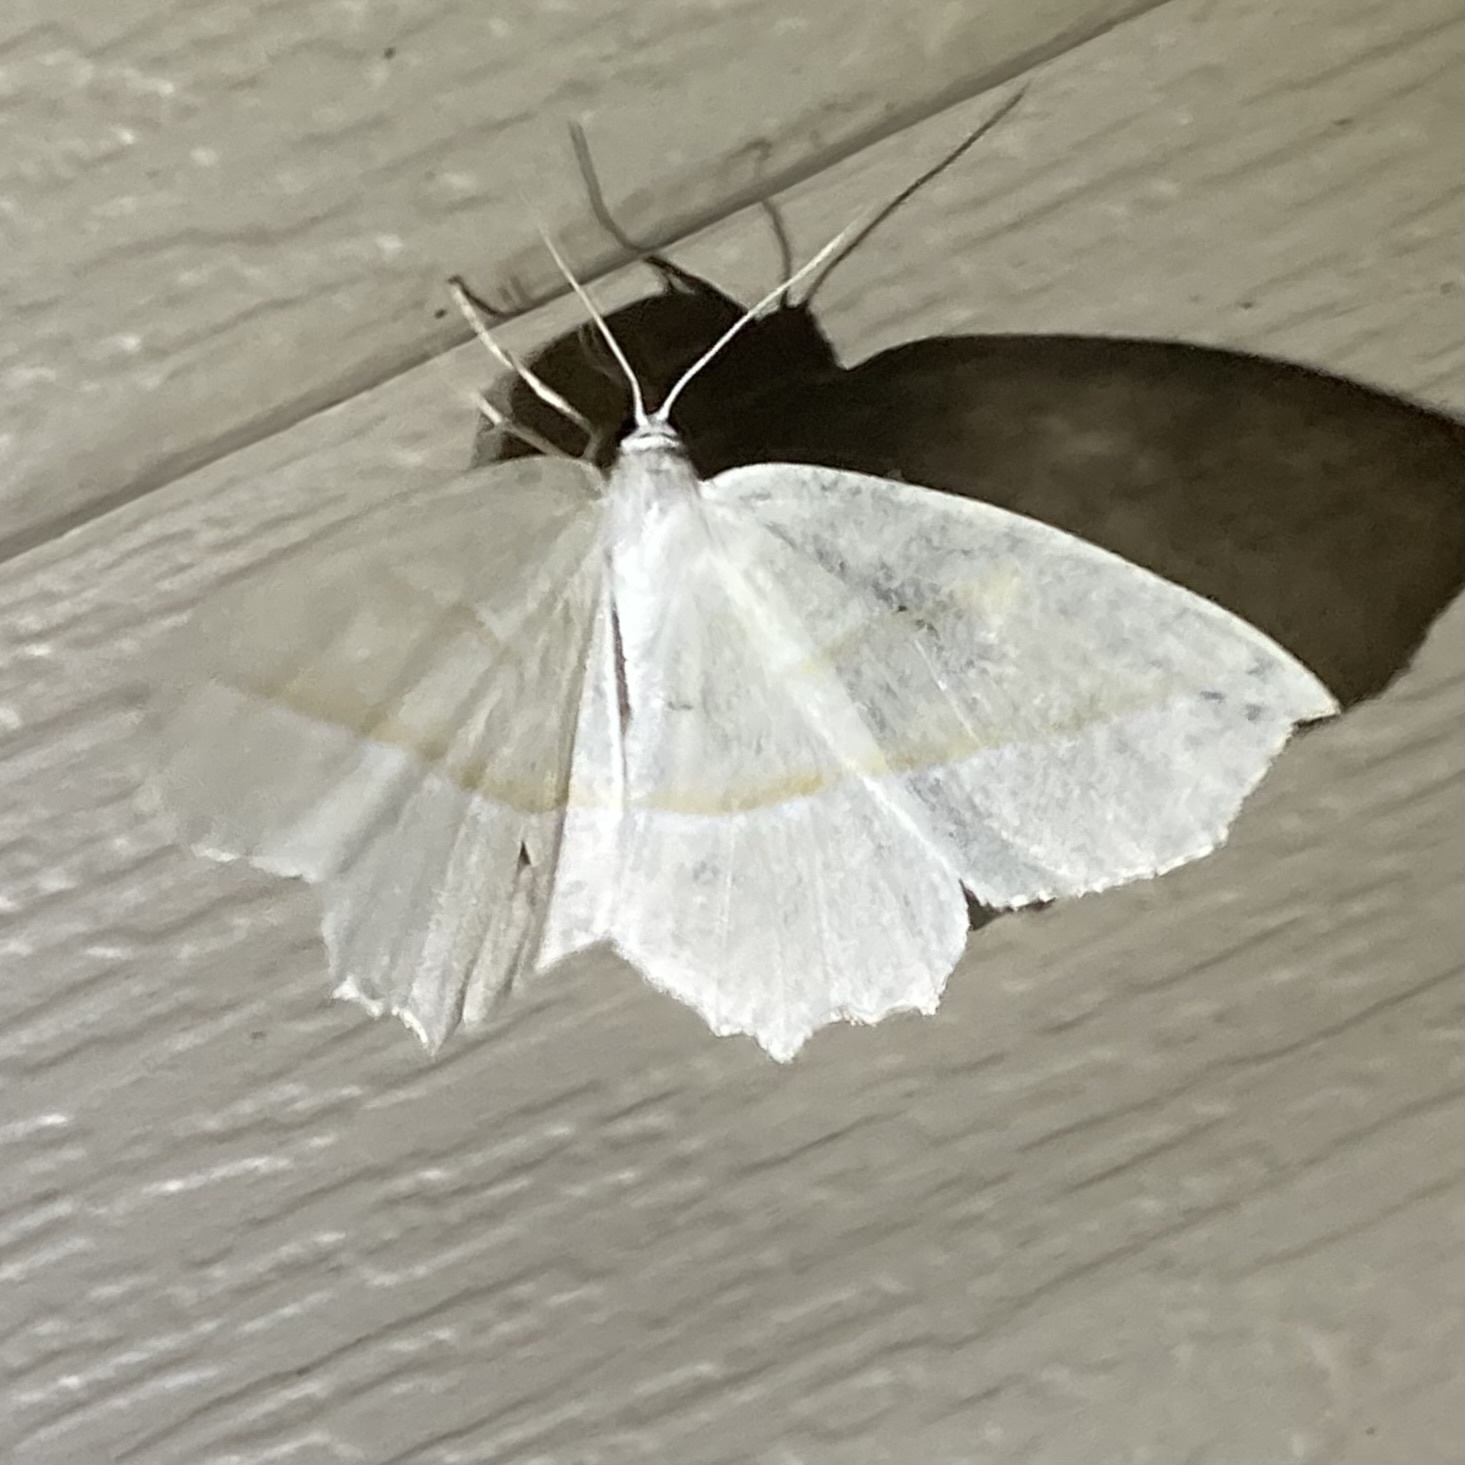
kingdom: Animalia
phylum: Arthropoda
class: Insecta
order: Lepidoptera
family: Geometridae
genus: Campaea
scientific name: Campaea perlata
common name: Fringed looper
